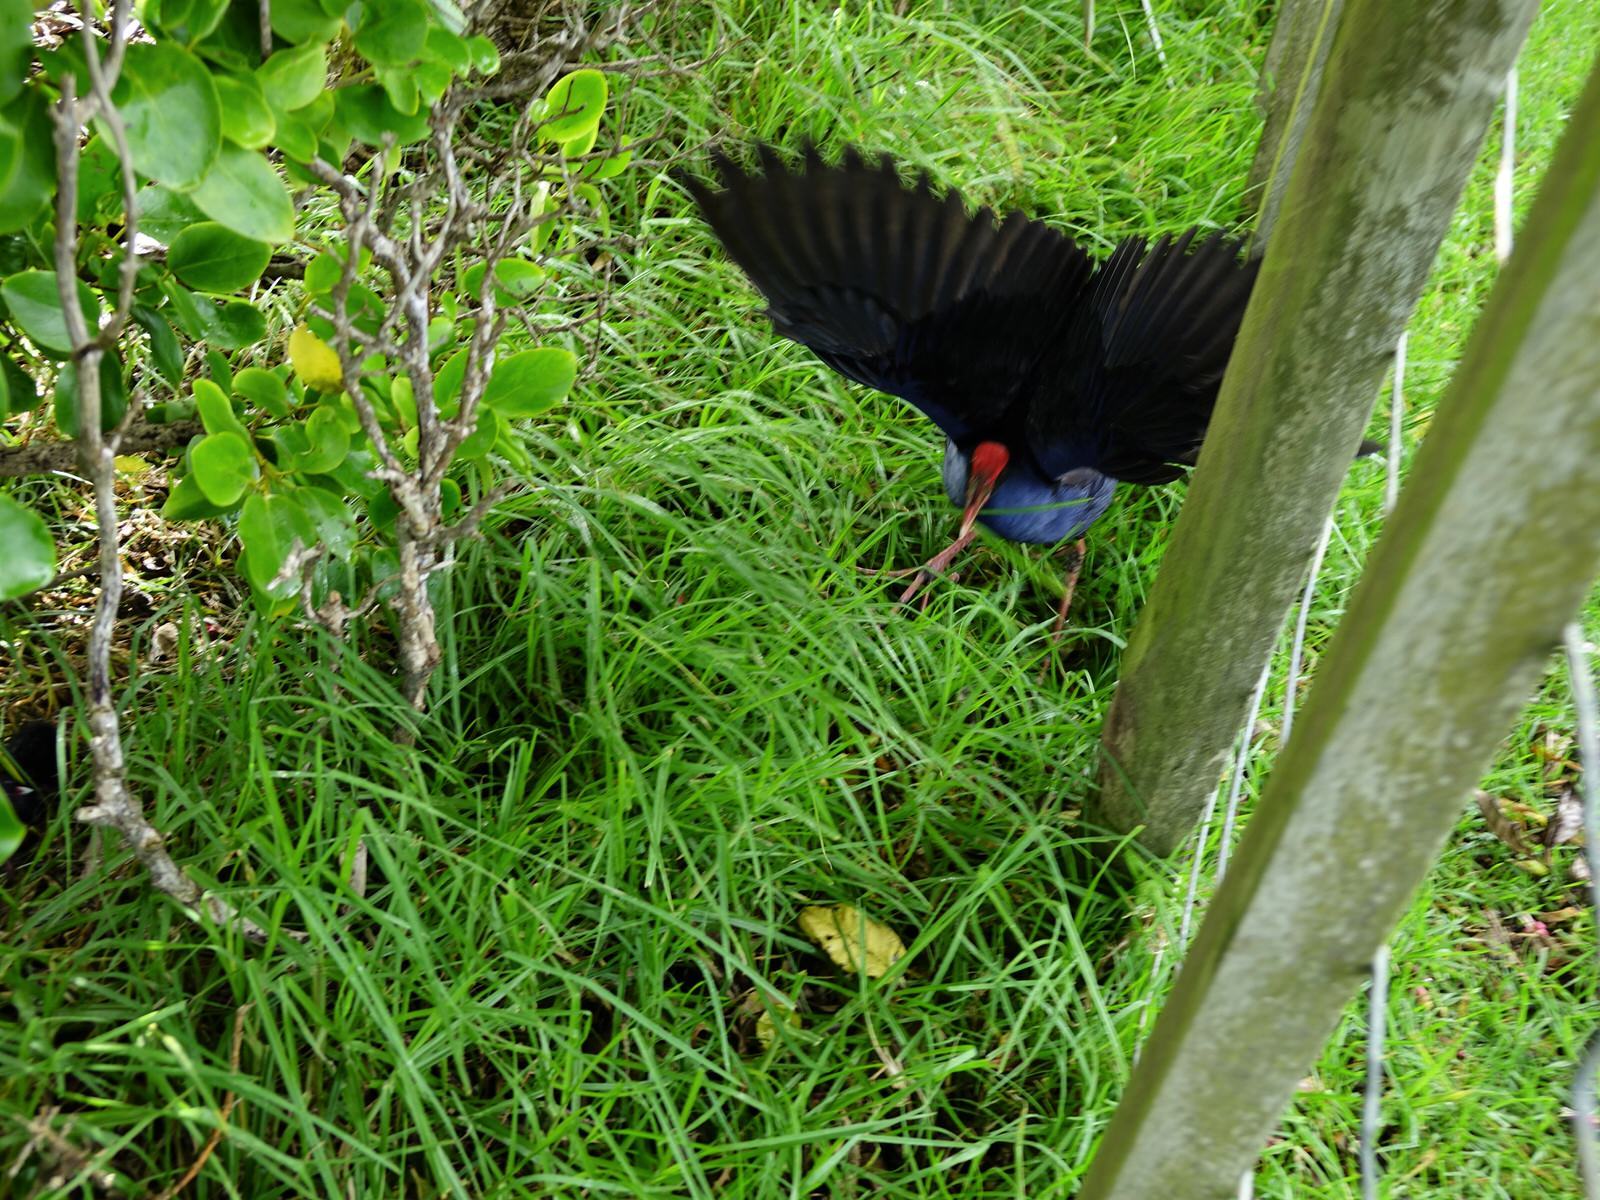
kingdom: Animalia
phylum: Chordata
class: Aves
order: Gruiformes
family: Rallidae
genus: Porphyrio
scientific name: Porphyrio melanotus
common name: Australasian swamphen
